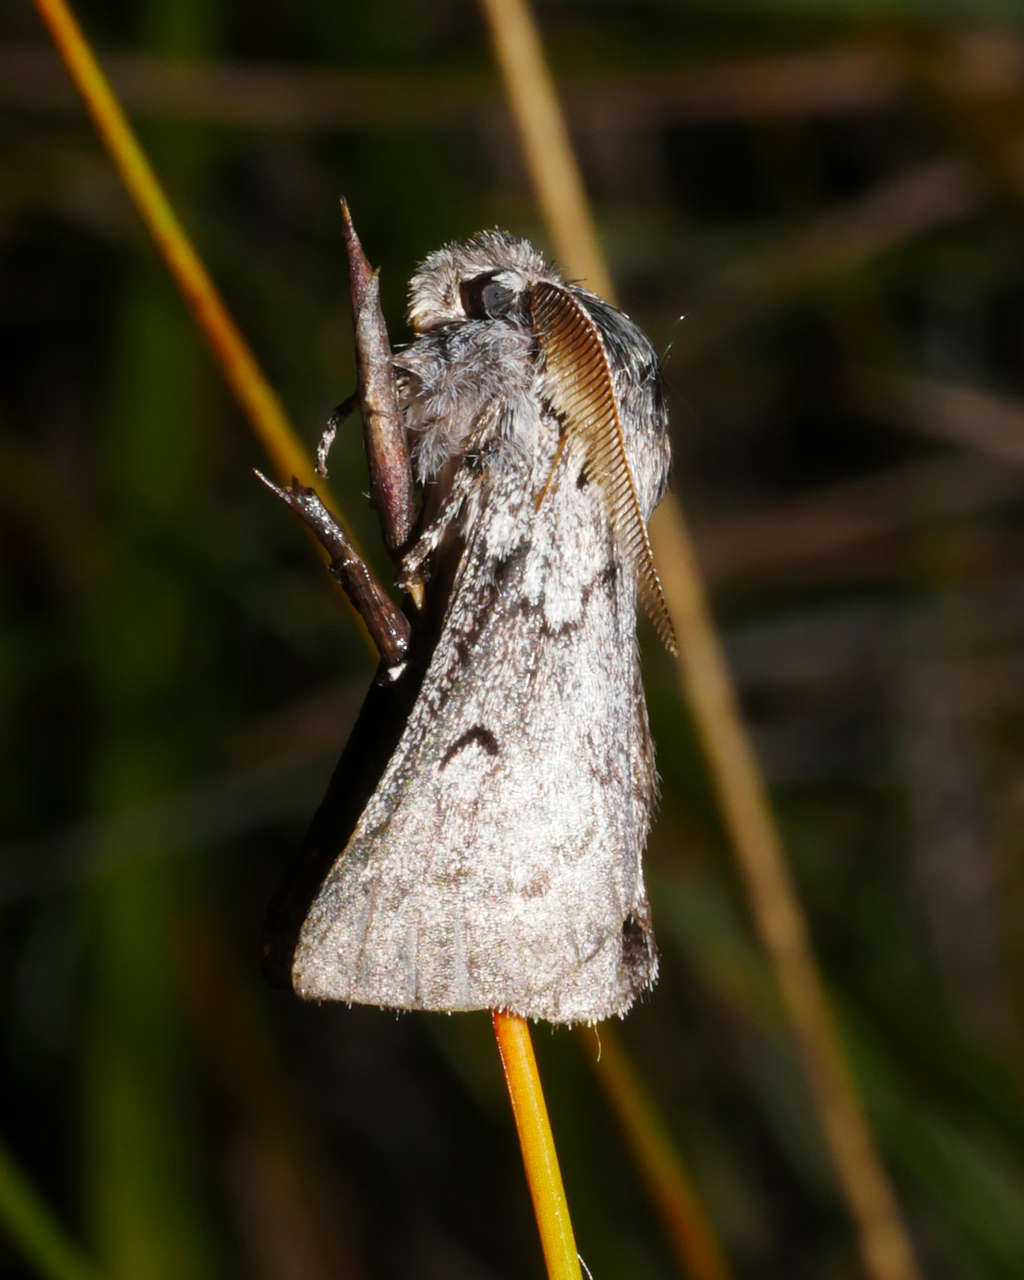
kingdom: Animalia
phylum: Arthropoda
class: Insecta
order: Lepidoptera
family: Anthelidae
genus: Munychryia
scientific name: Munychryia senicula
